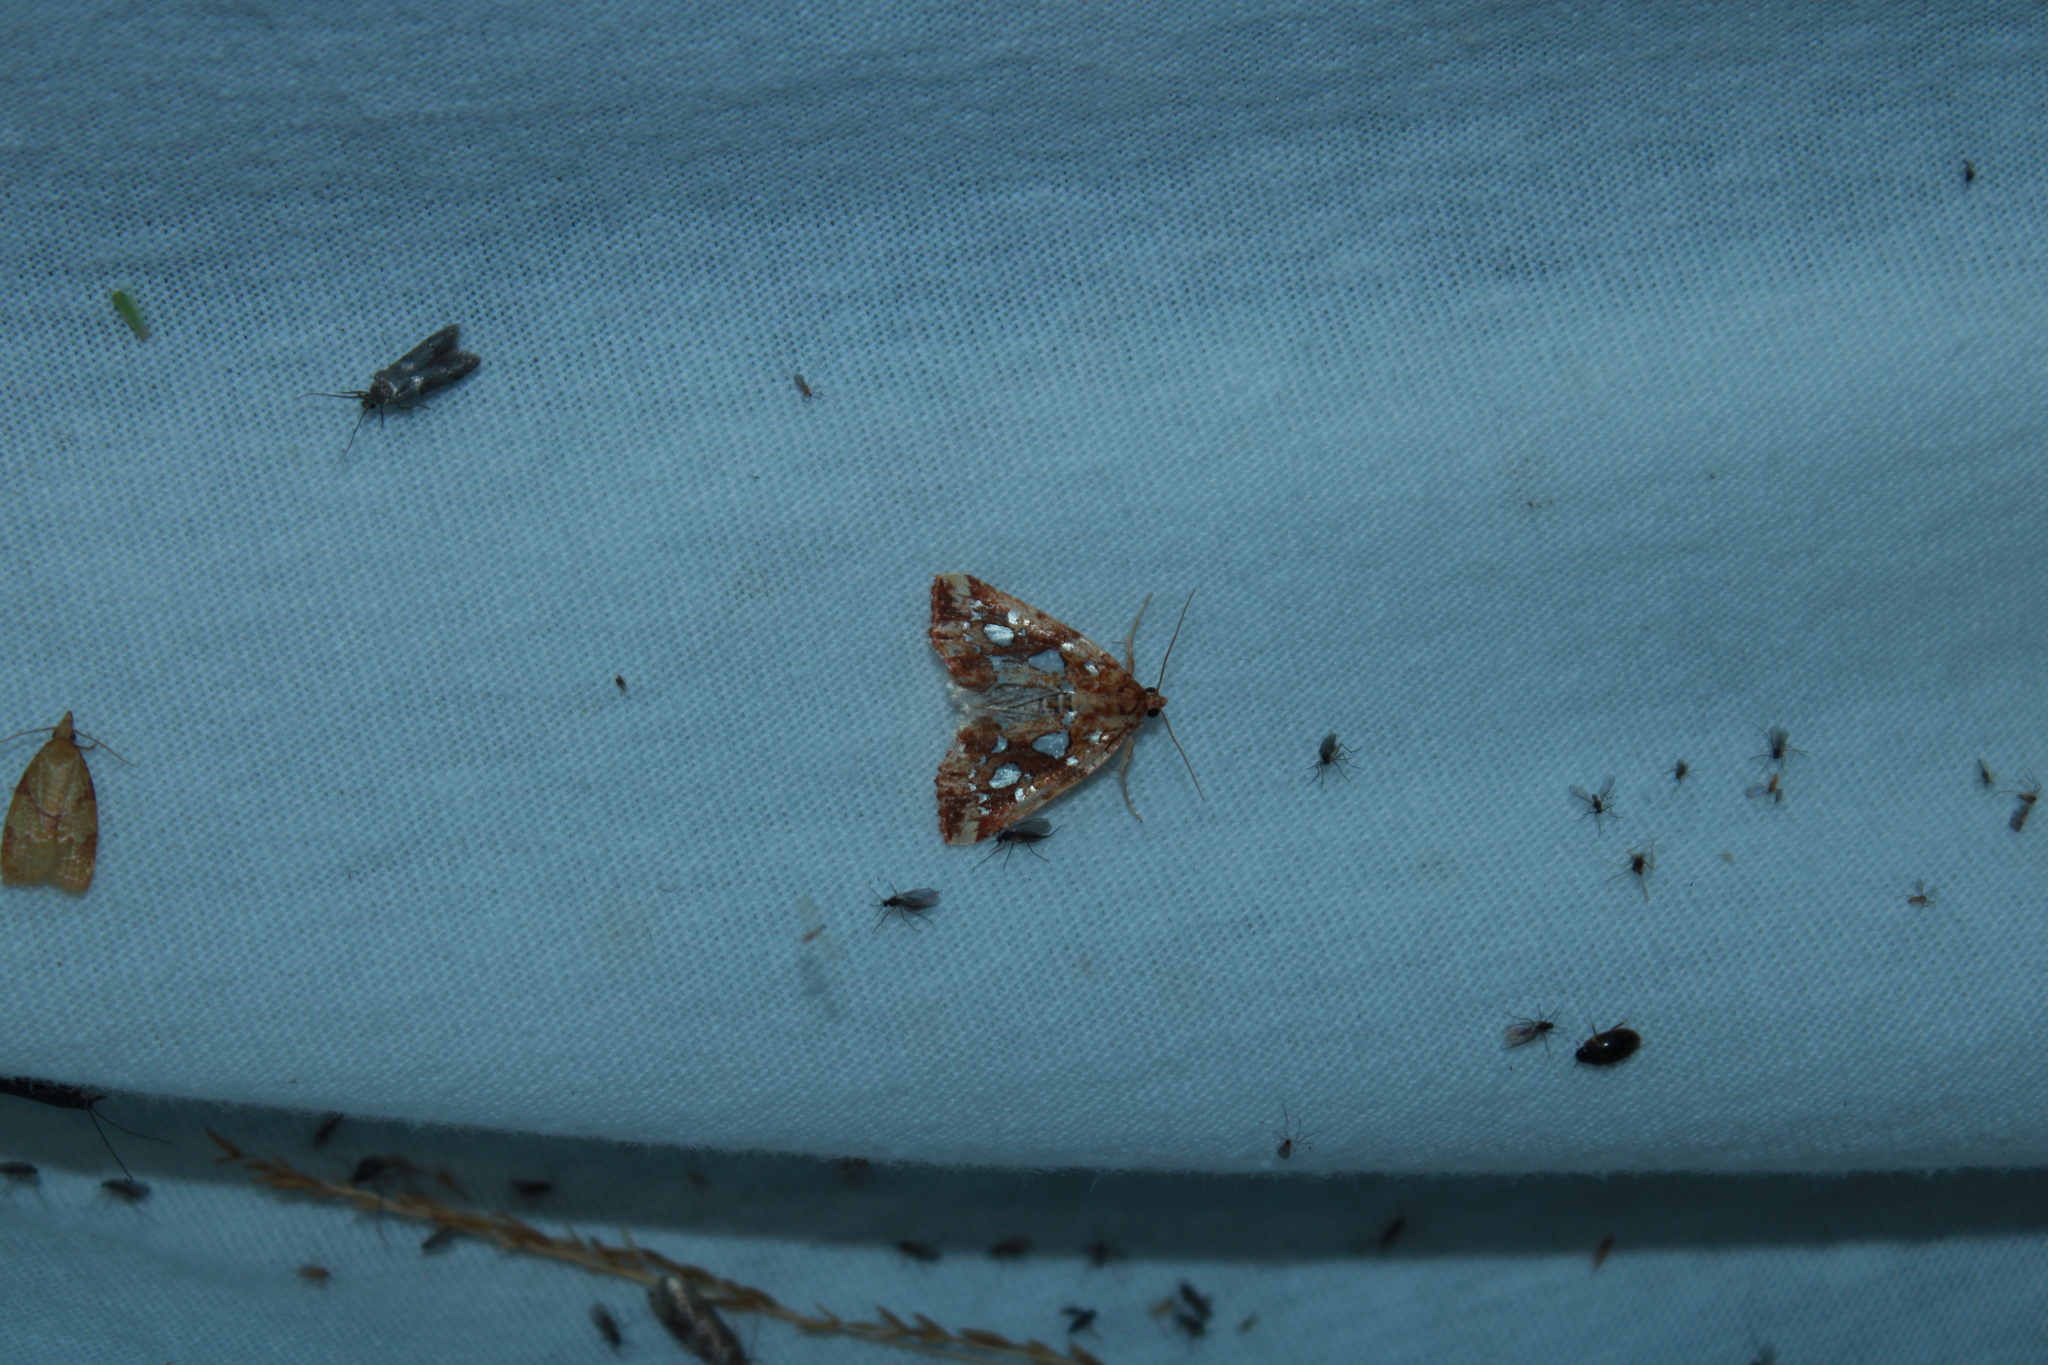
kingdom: Animalia
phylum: Arthropoda
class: Insecta
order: Lepidoptera
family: Noctuidae
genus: Callopistria
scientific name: Callopistria cordata
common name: Silver-spotted fern moth
